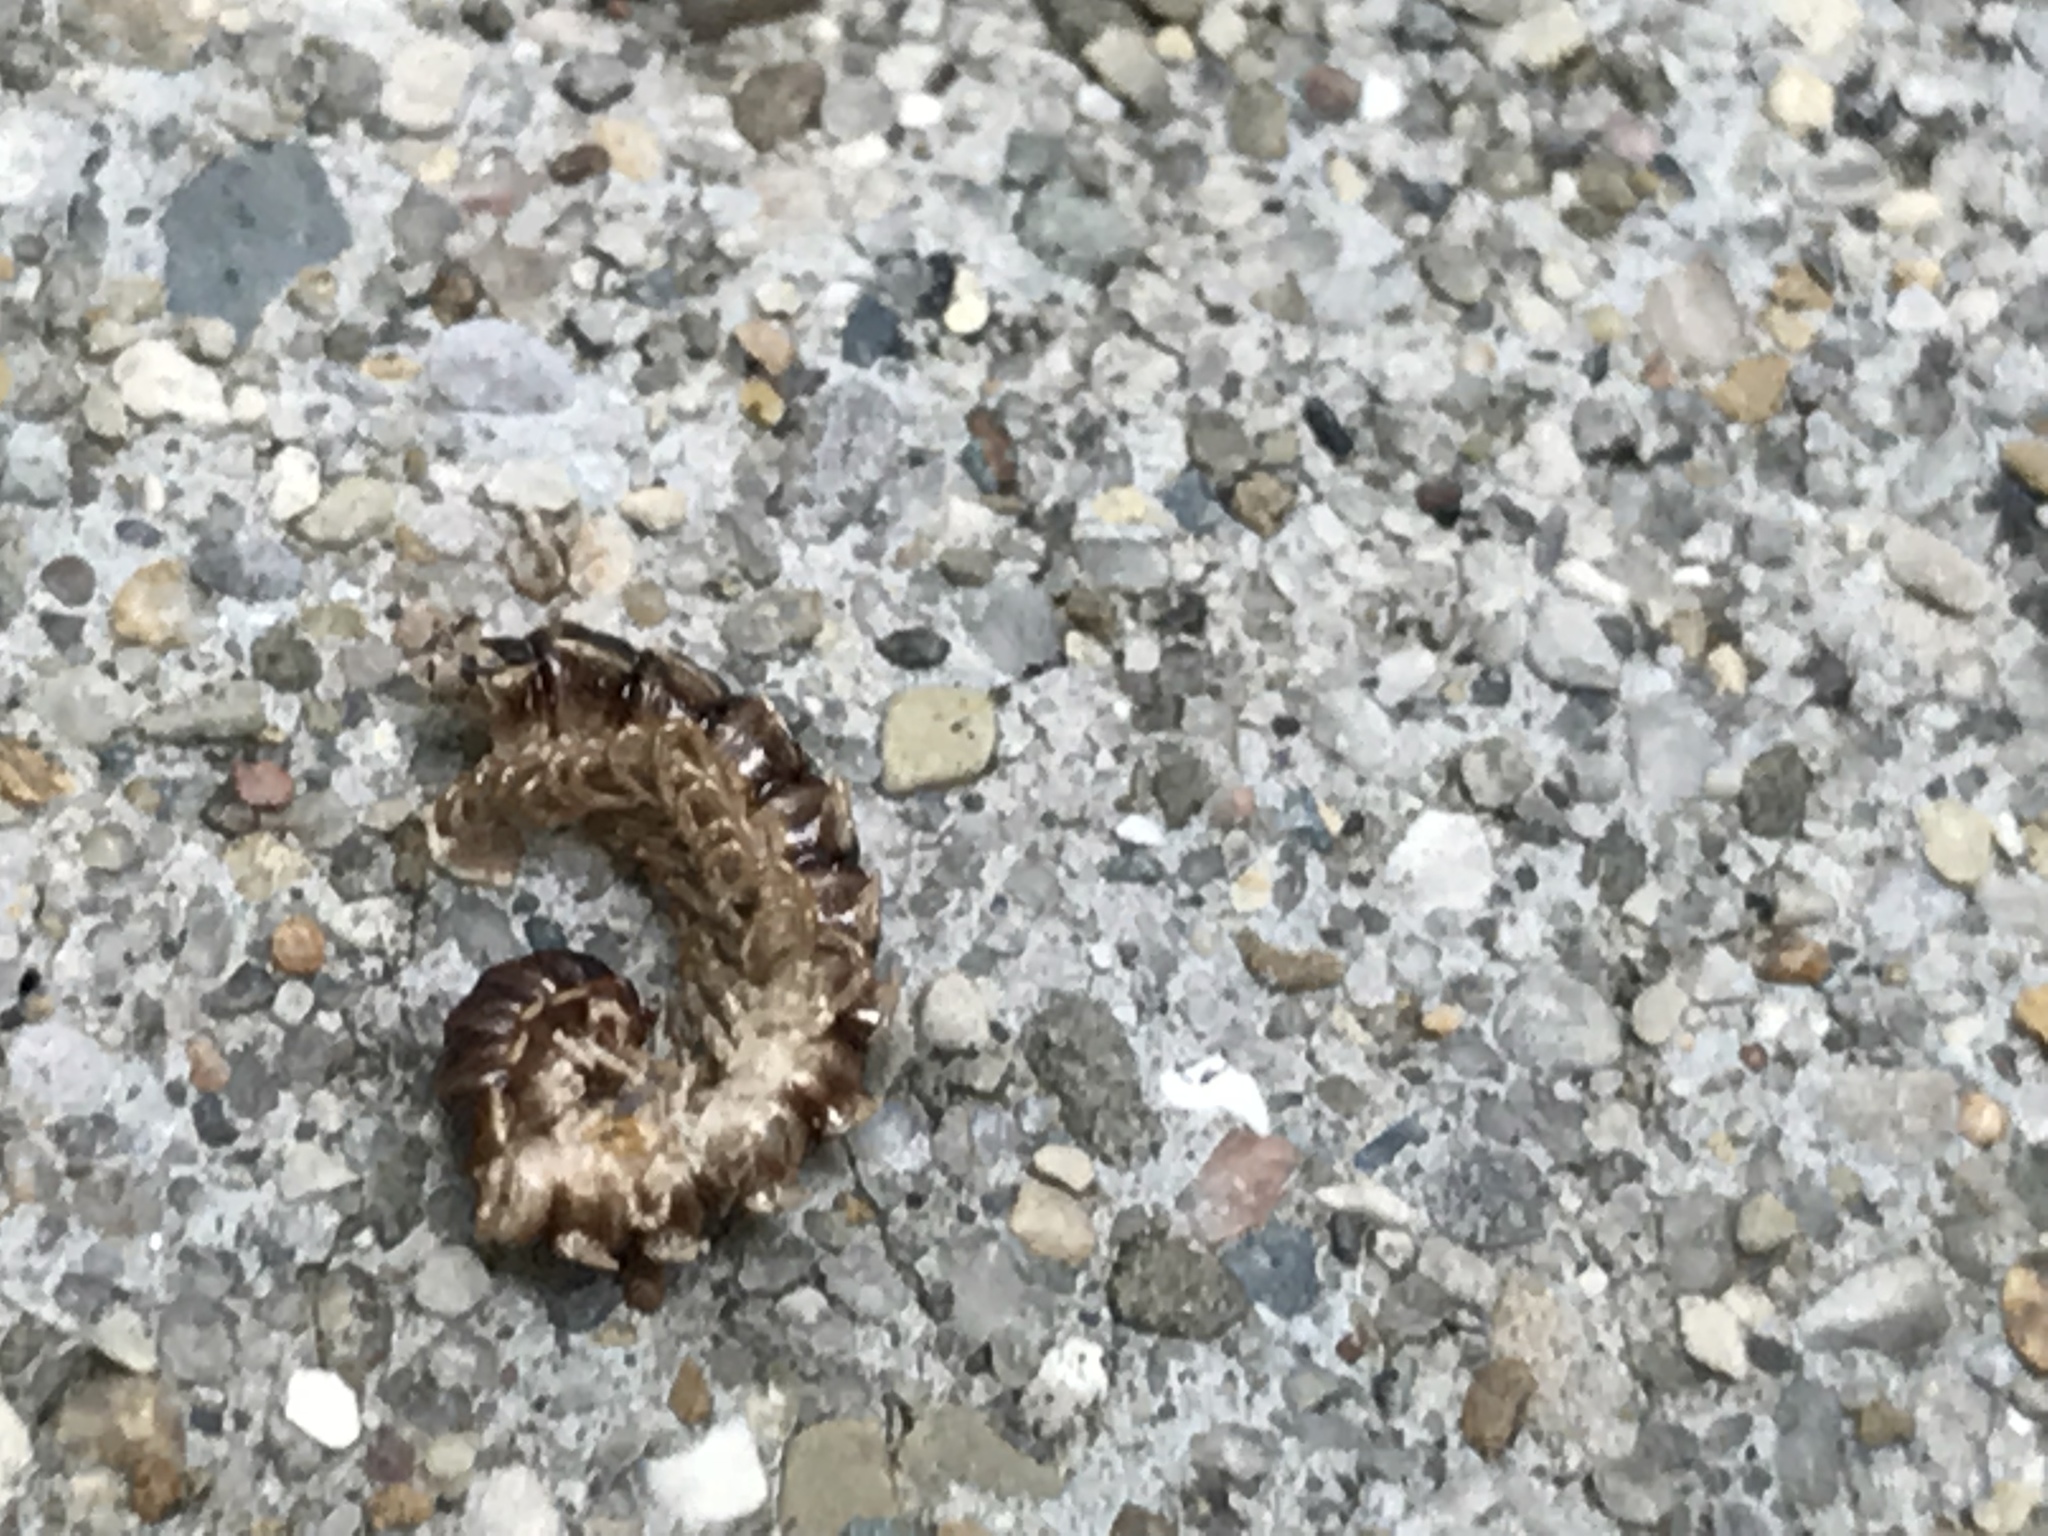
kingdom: Animalia
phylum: Arthropoda
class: Diplopoda
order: Polydesmida
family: Paradoxosomatidae
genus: Oxidus
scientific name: Oxidus gracilis
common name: Greenhouse millipede
